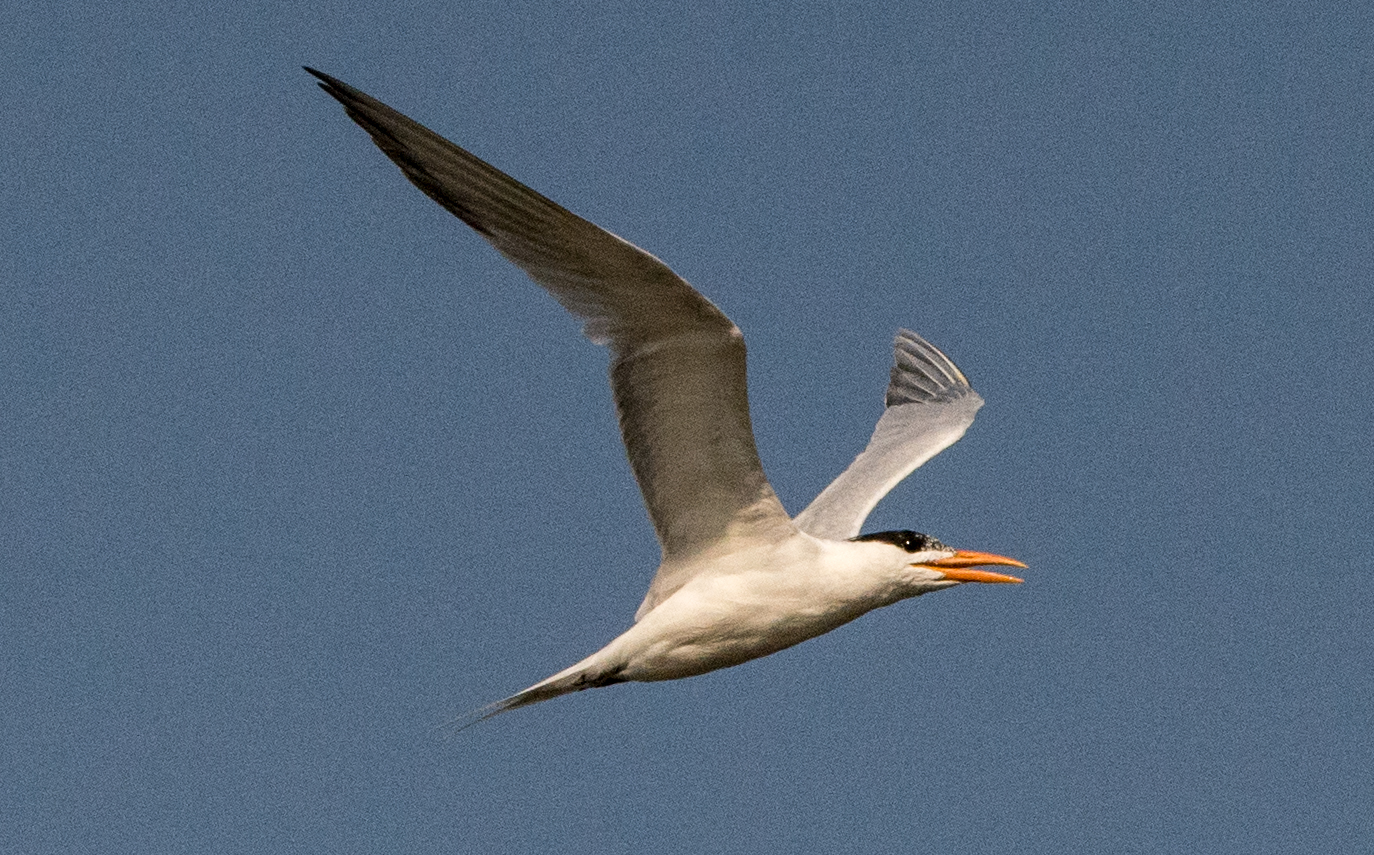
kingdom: Animalia
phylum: Chordata
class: Aves
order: Charadriiformes
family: Laridae
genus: Thalasseus
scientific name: Thalasseus maximus
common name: Royal tern
